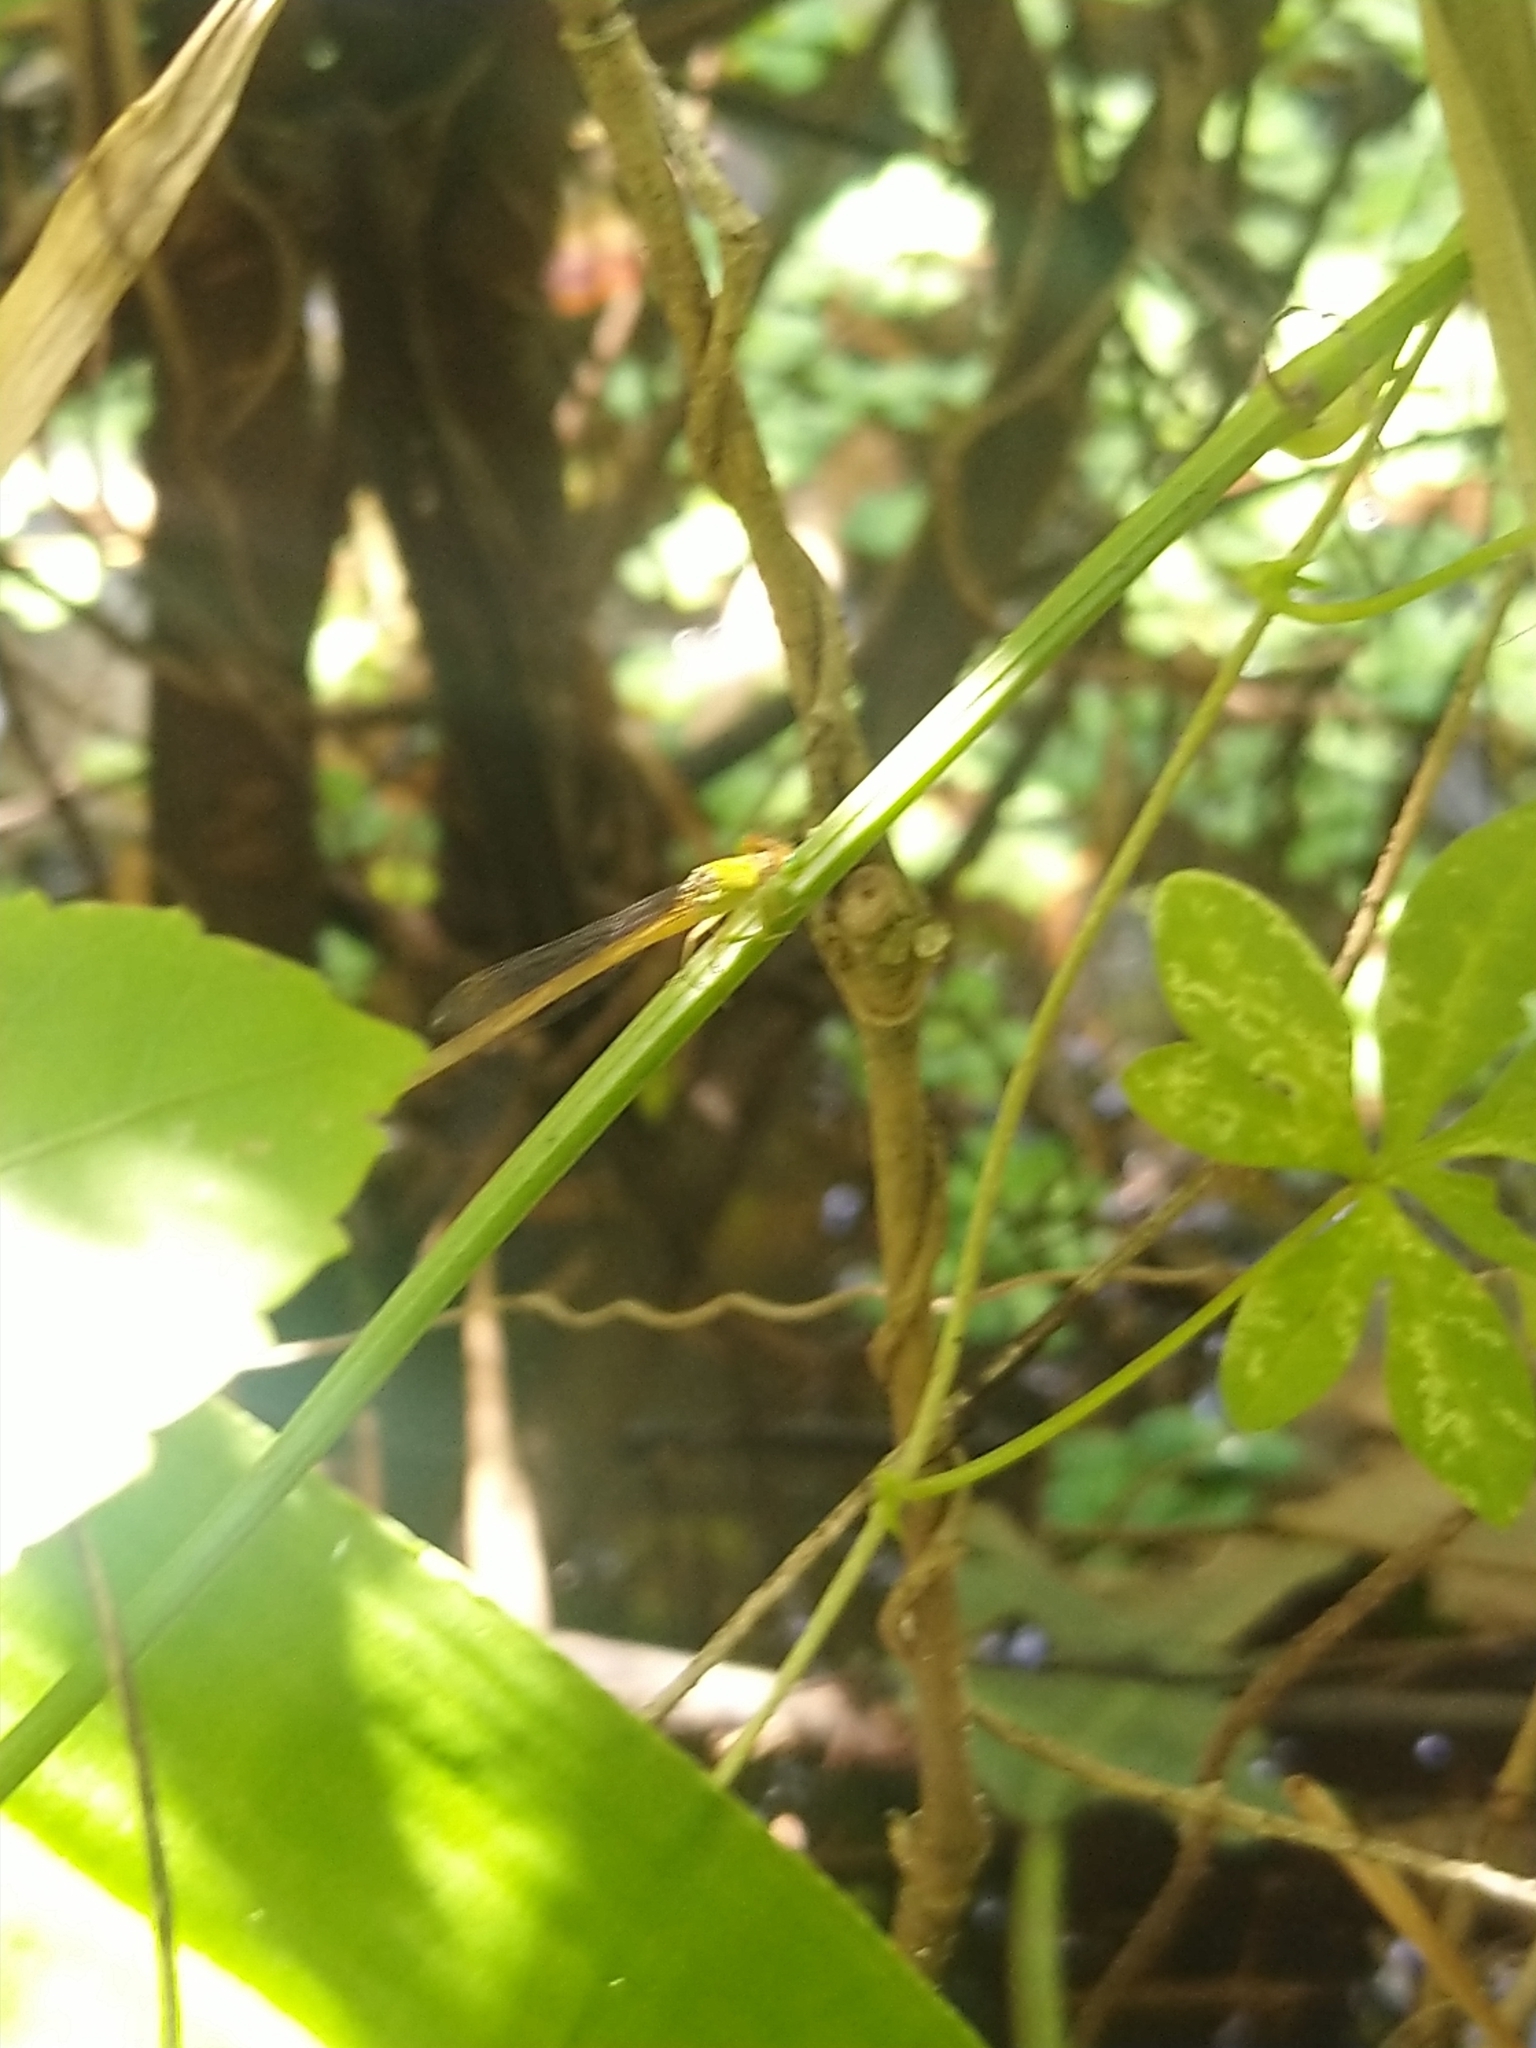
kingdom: Animalia
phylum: Arthropoda
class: Insecta
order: Odonata
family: Coenagrionidae
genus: Ceriagrion
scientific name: Ceriagrion coromandelianum
